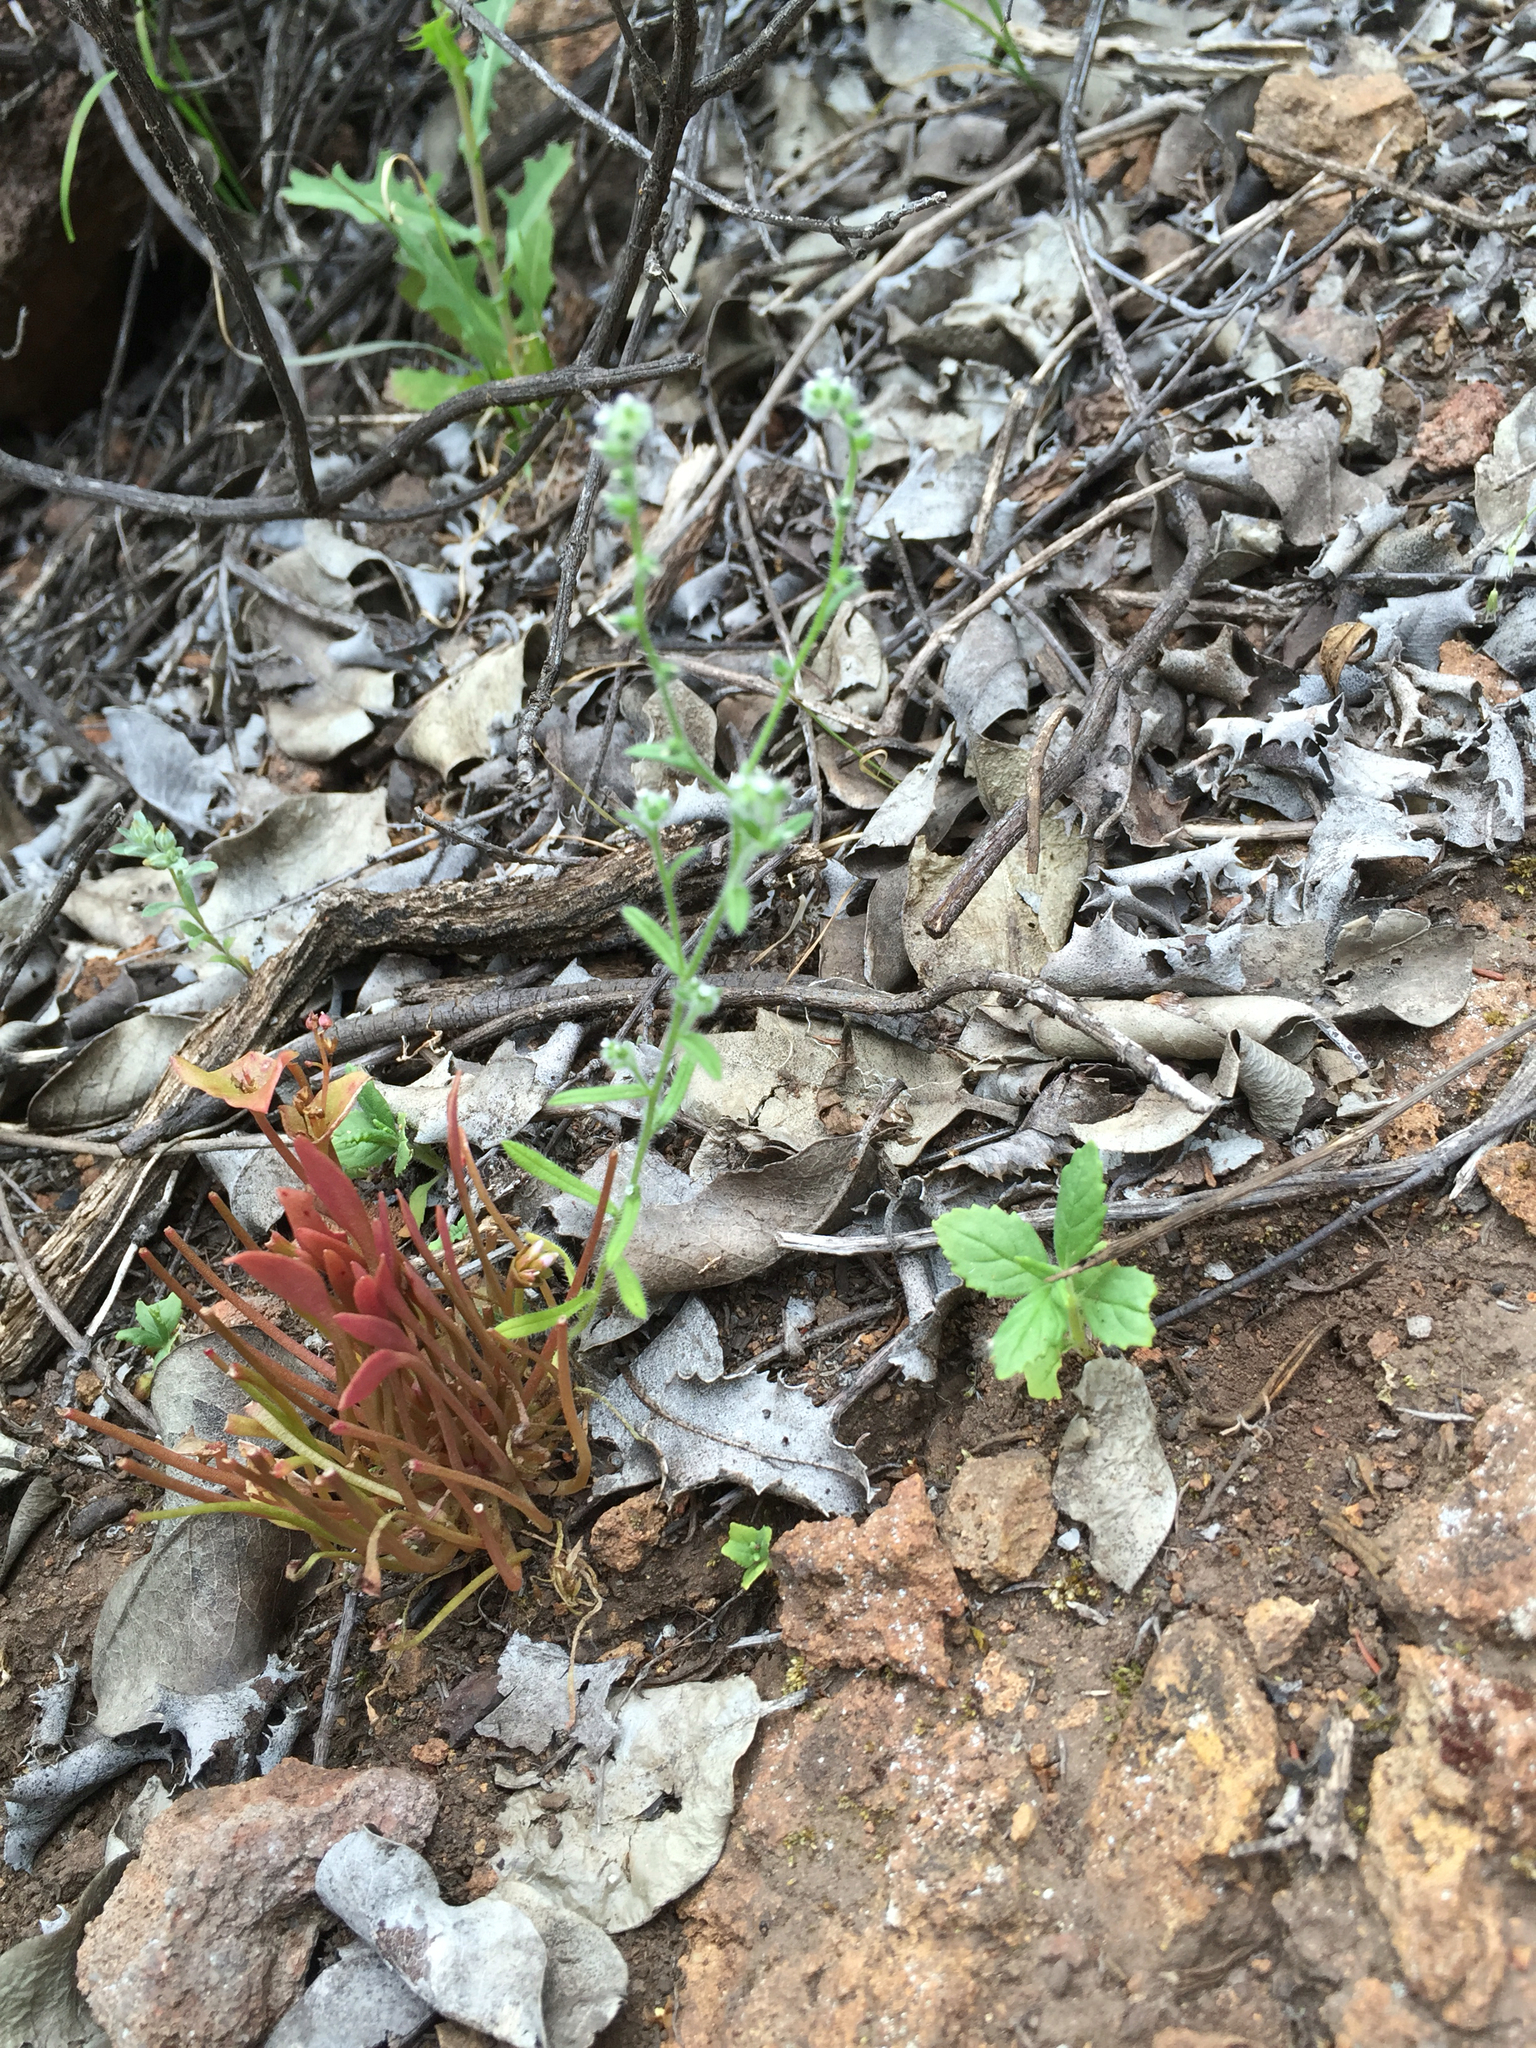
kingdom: Plantae
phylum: Tracheophyta
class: Magnoliopsida
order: Caryophyllales
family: Montiaceae
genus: Claytonia
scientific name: Claytonia perfoliata
